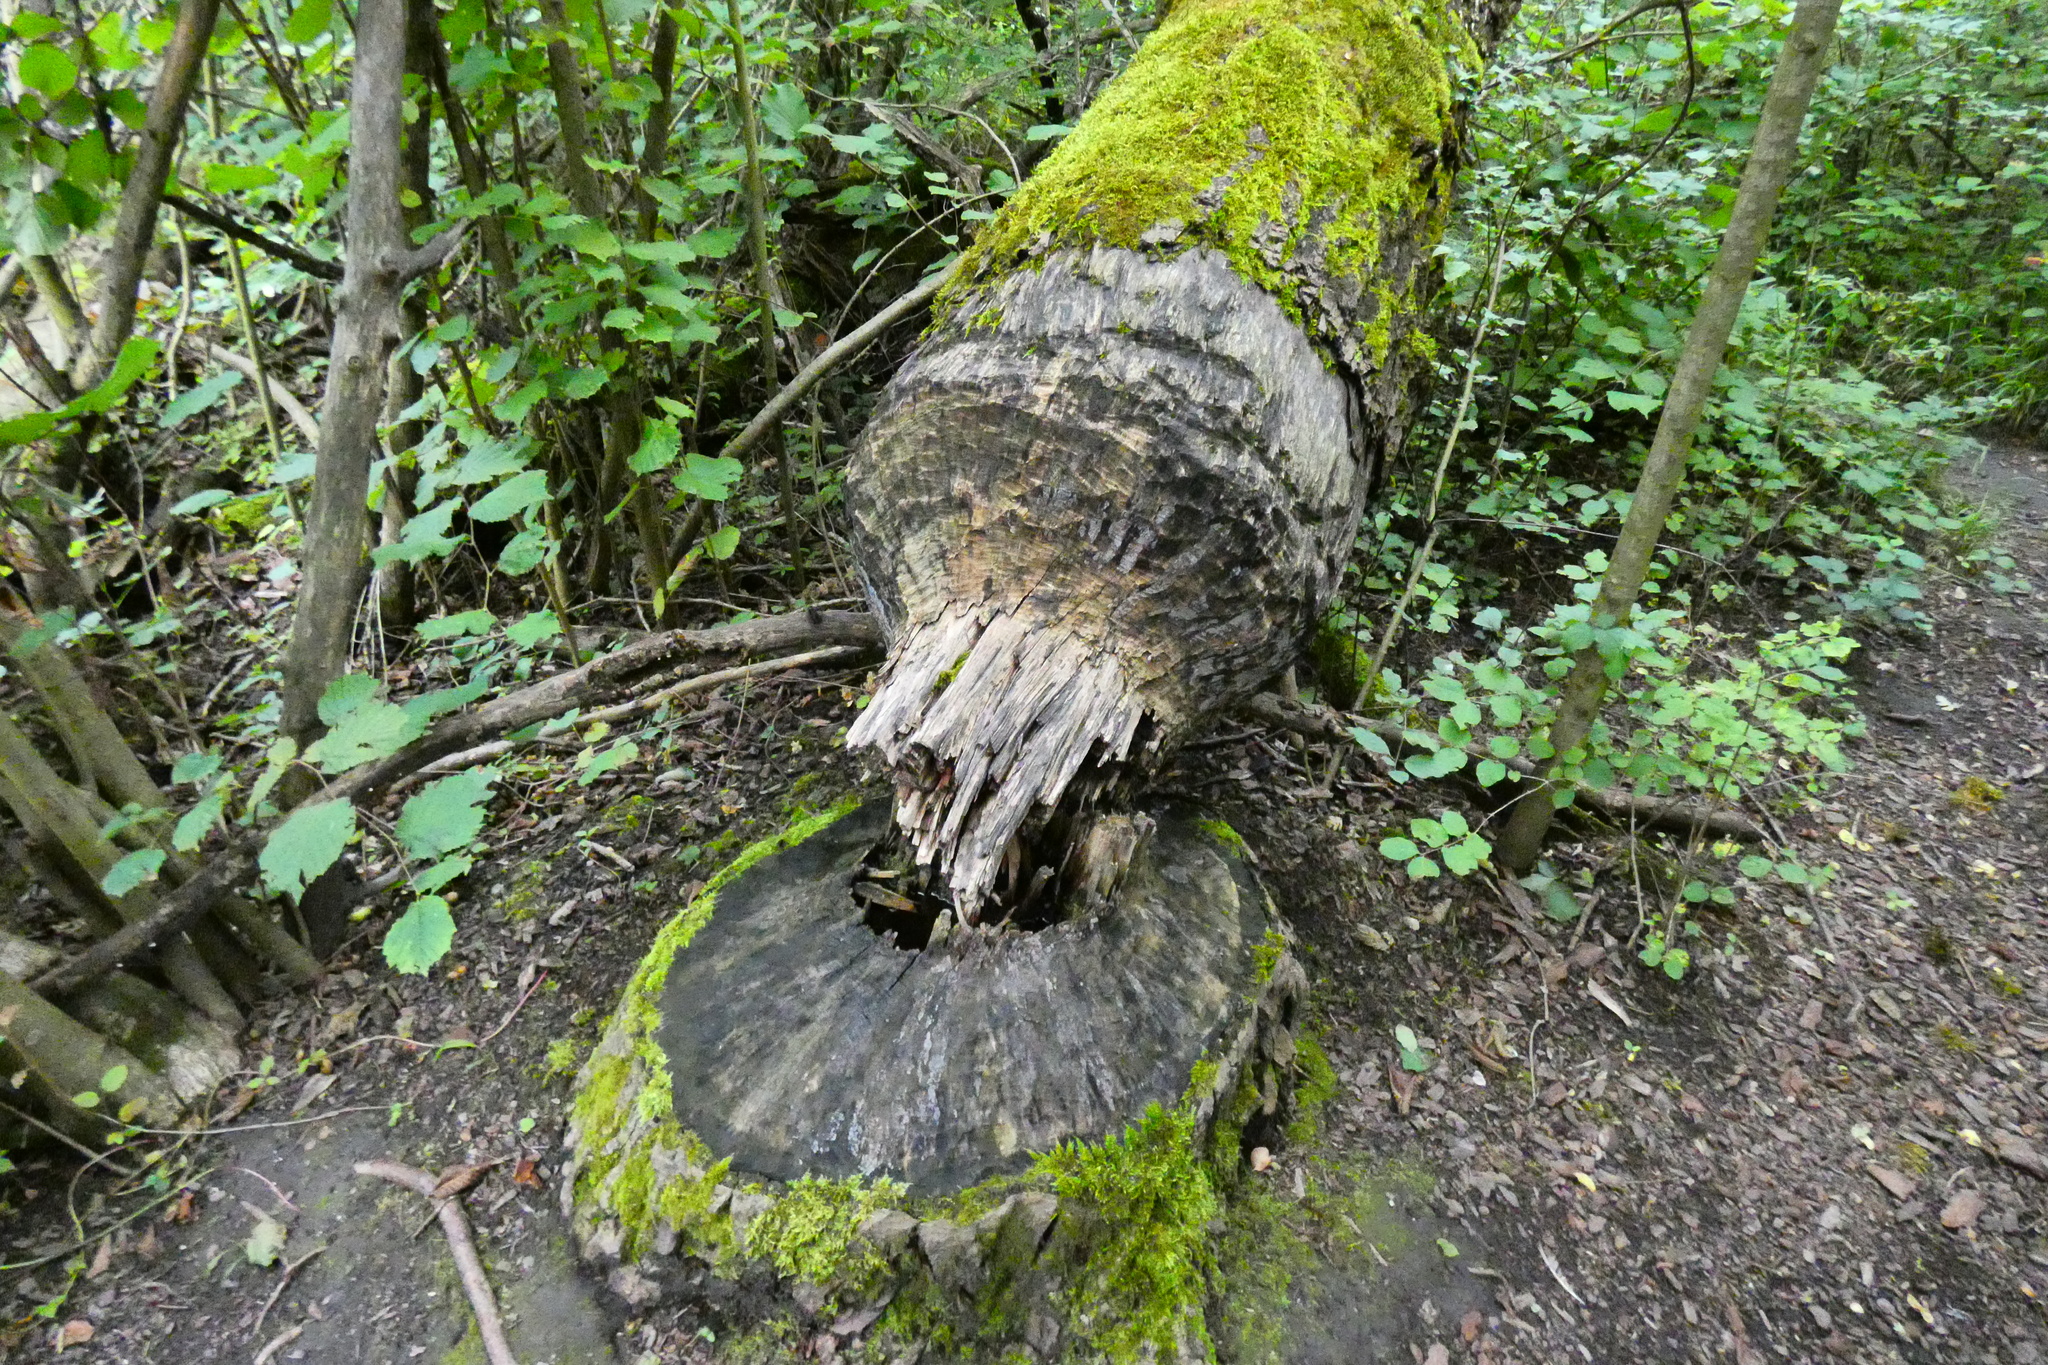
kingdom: Animalia
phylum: Chordata
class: Mammalia
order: Rodentia
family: Castoridae
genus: Castor
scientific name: Castor fiber
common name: Eurasian beaver
